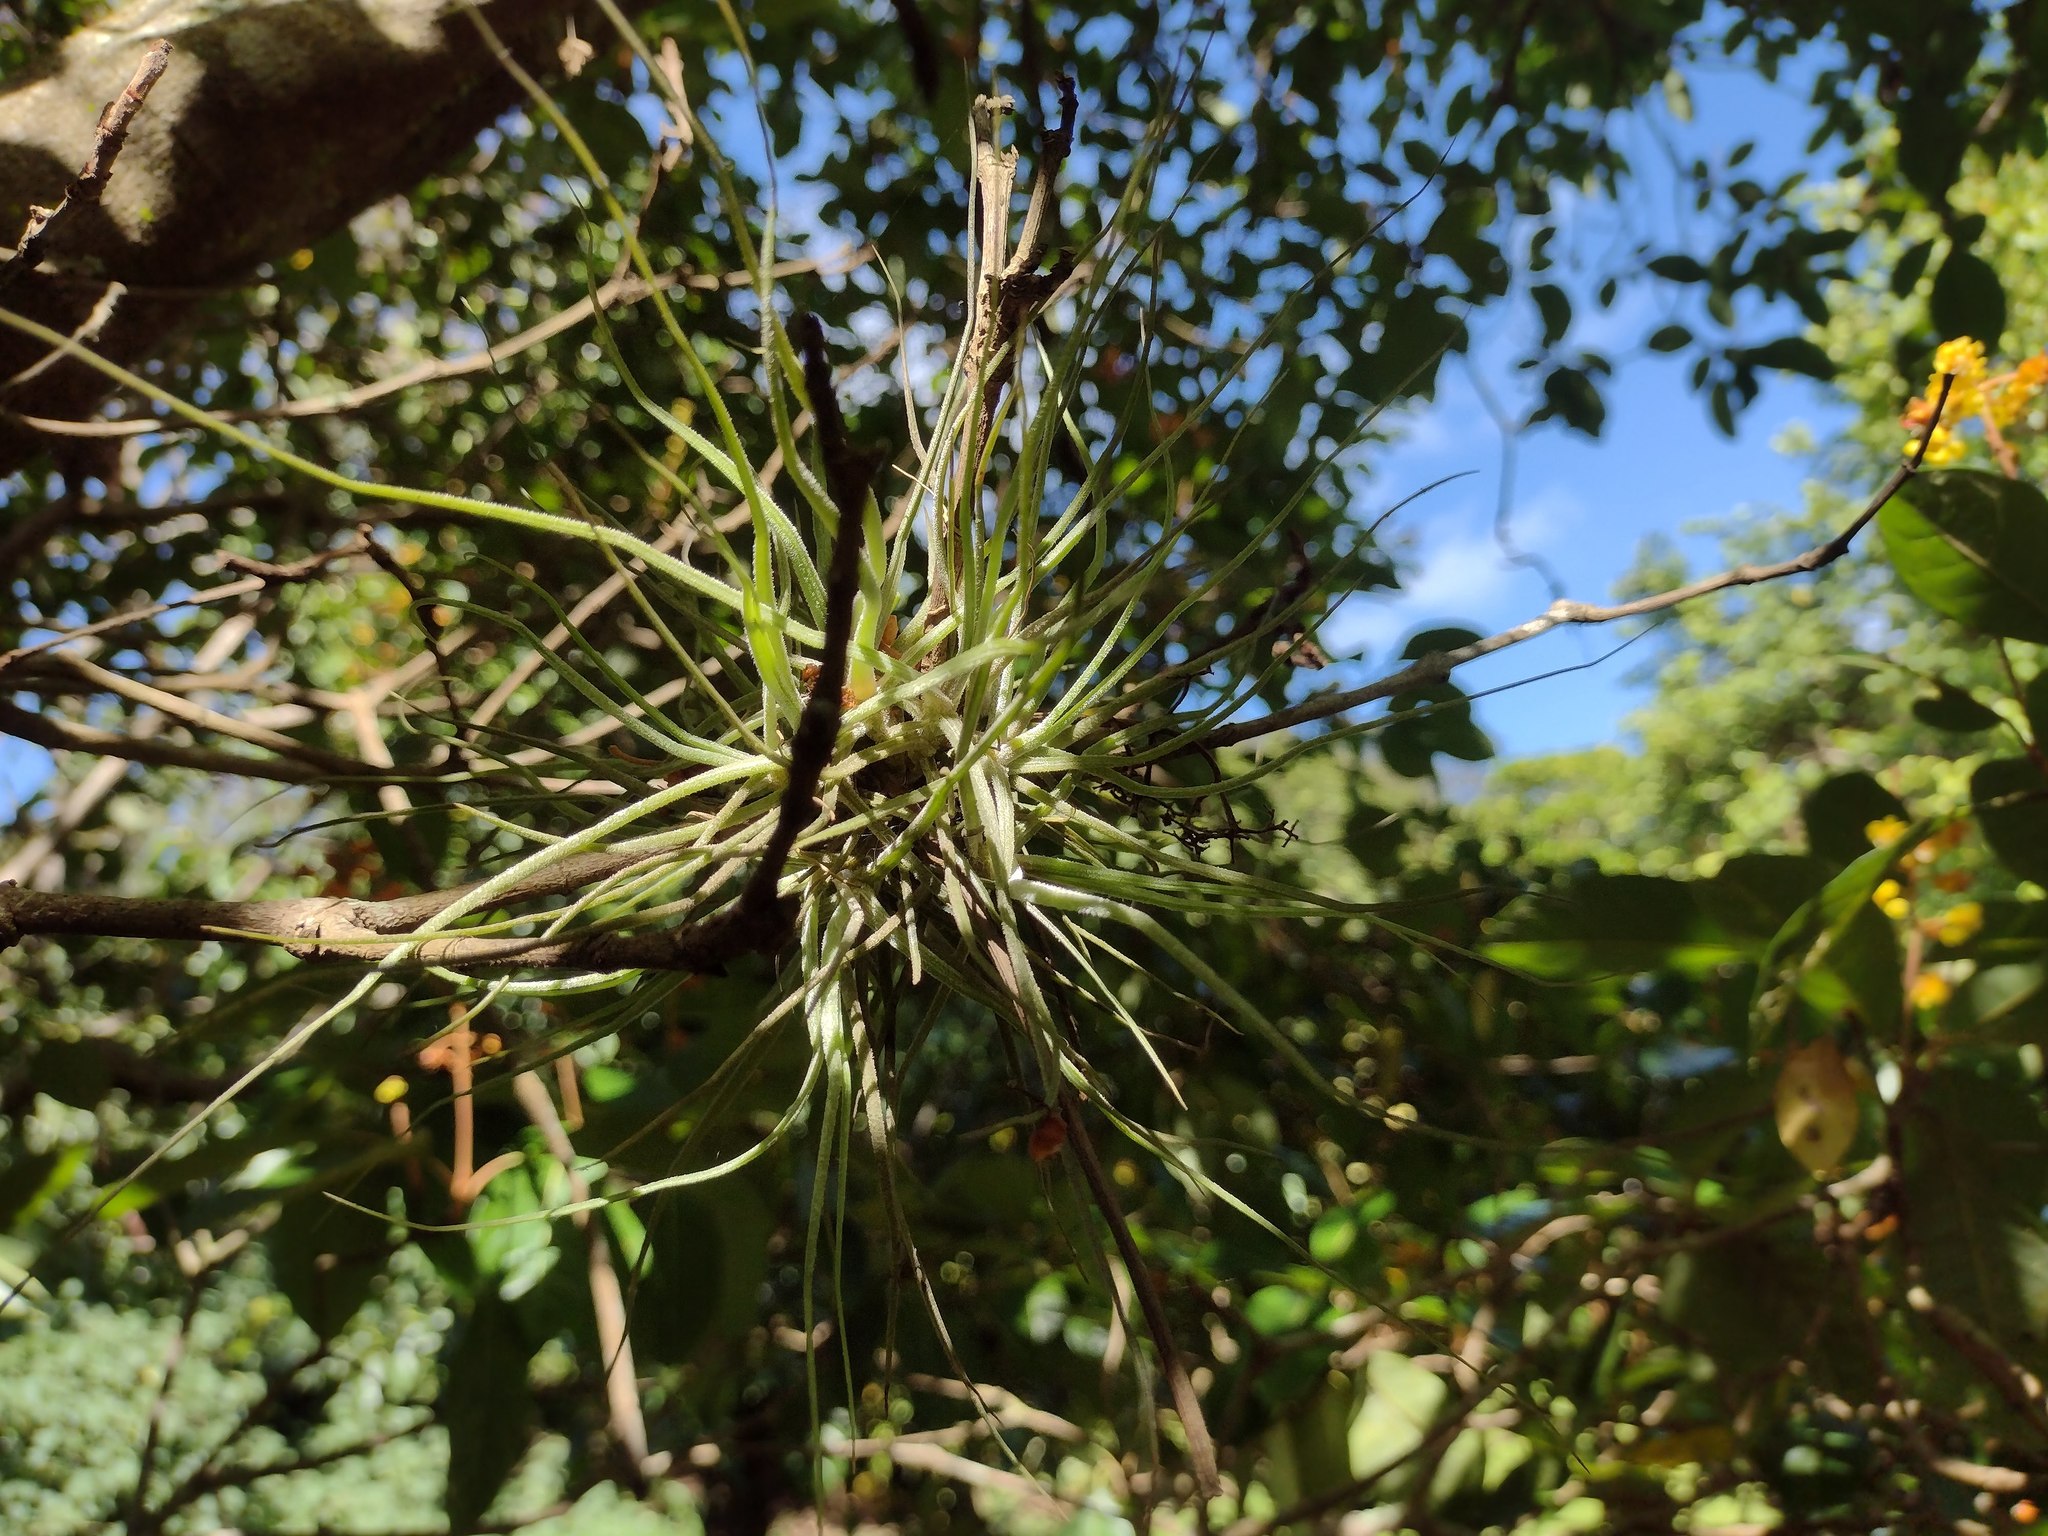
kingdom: Plantae
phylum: Tracheophyta
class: Liliopsida
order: Poales
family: Bromeliaceae
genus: Tillandsia
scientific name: Tillandsia recurvata
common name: Small ballmoss
